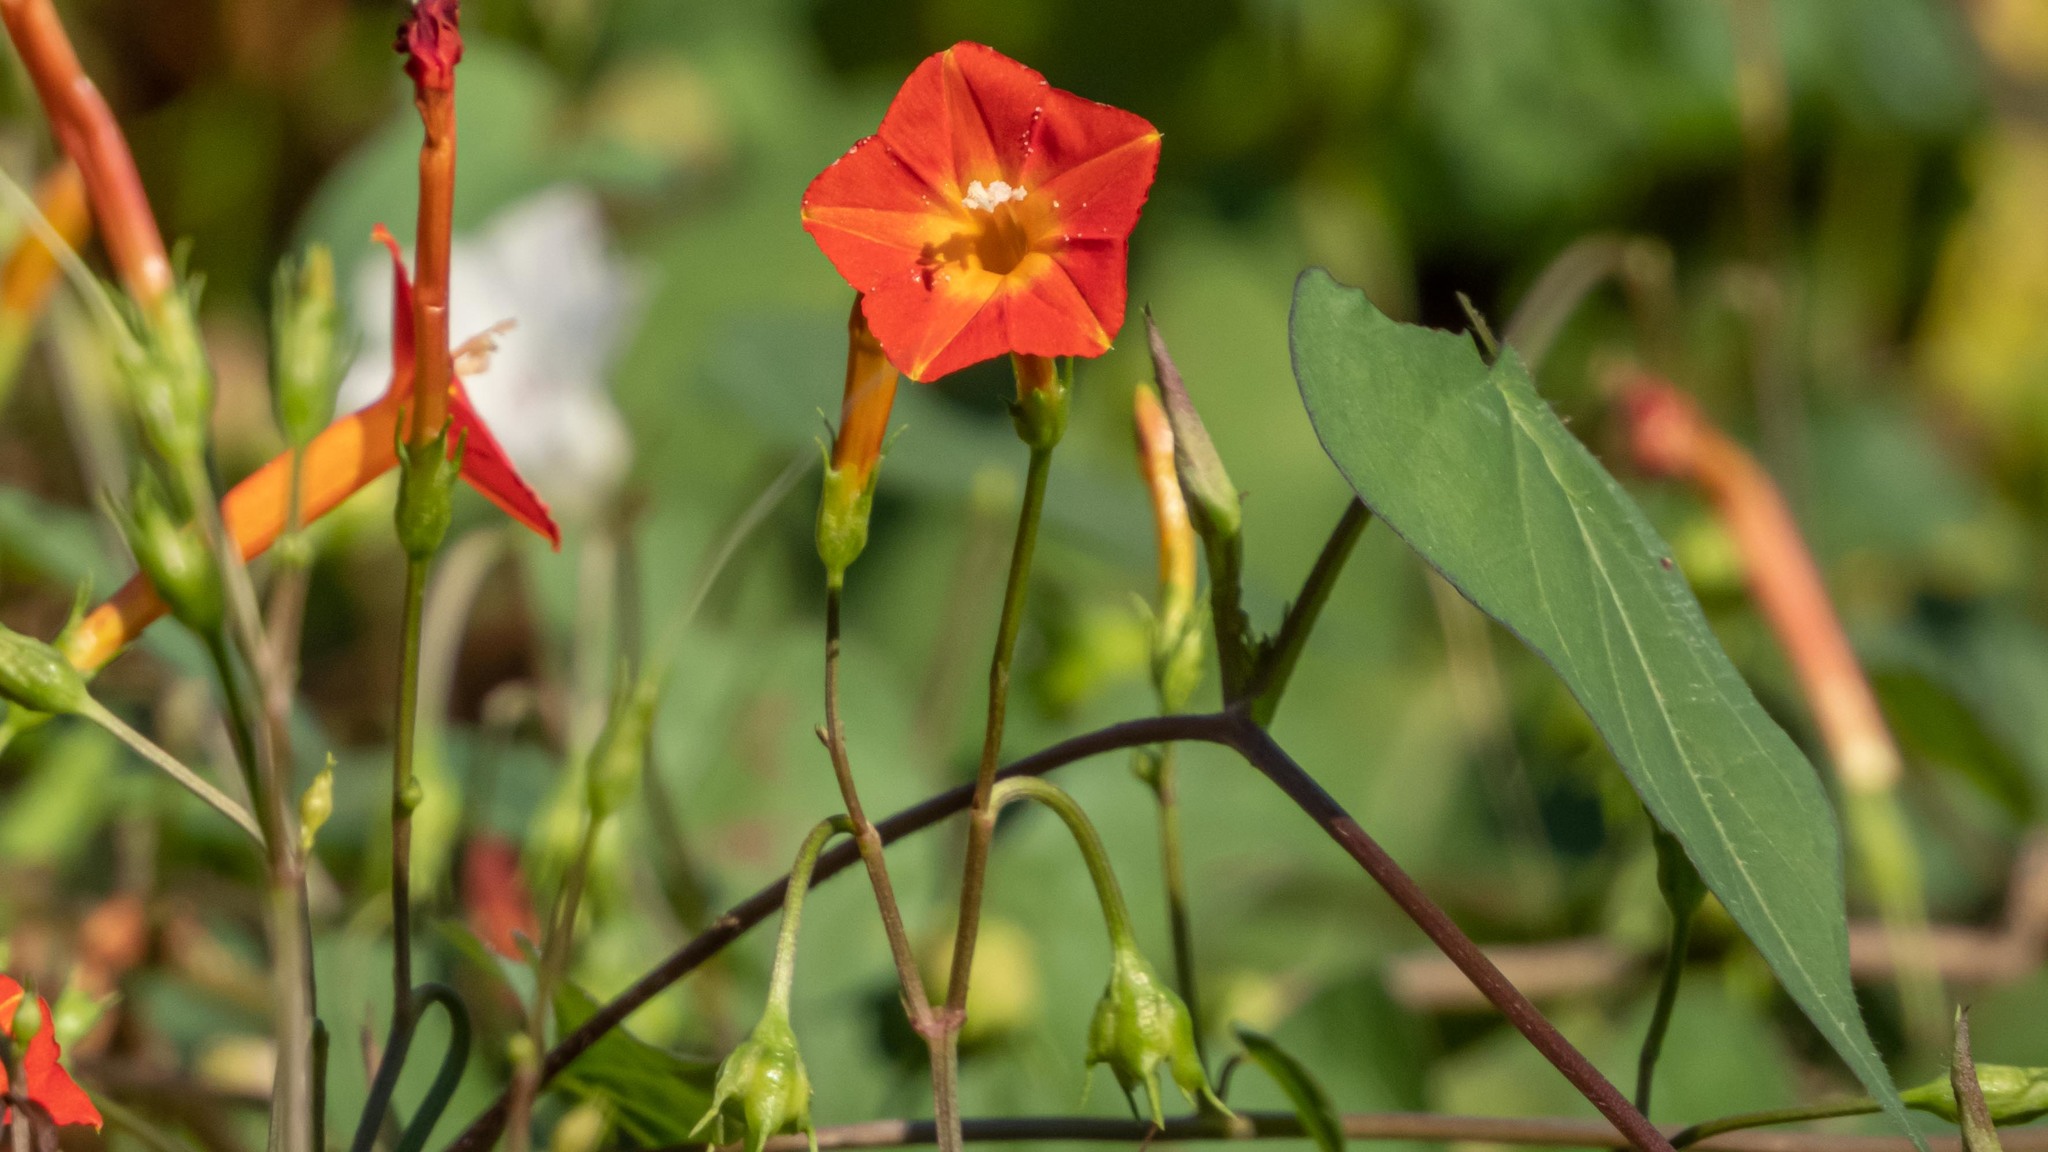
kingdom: Plantae
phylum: Tracheophyta
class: Magnoliopsida
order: Solanales
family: Convolvulaceae
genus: Ipomoea
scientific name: Ipomoea coccinea
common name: Red morning-glory
